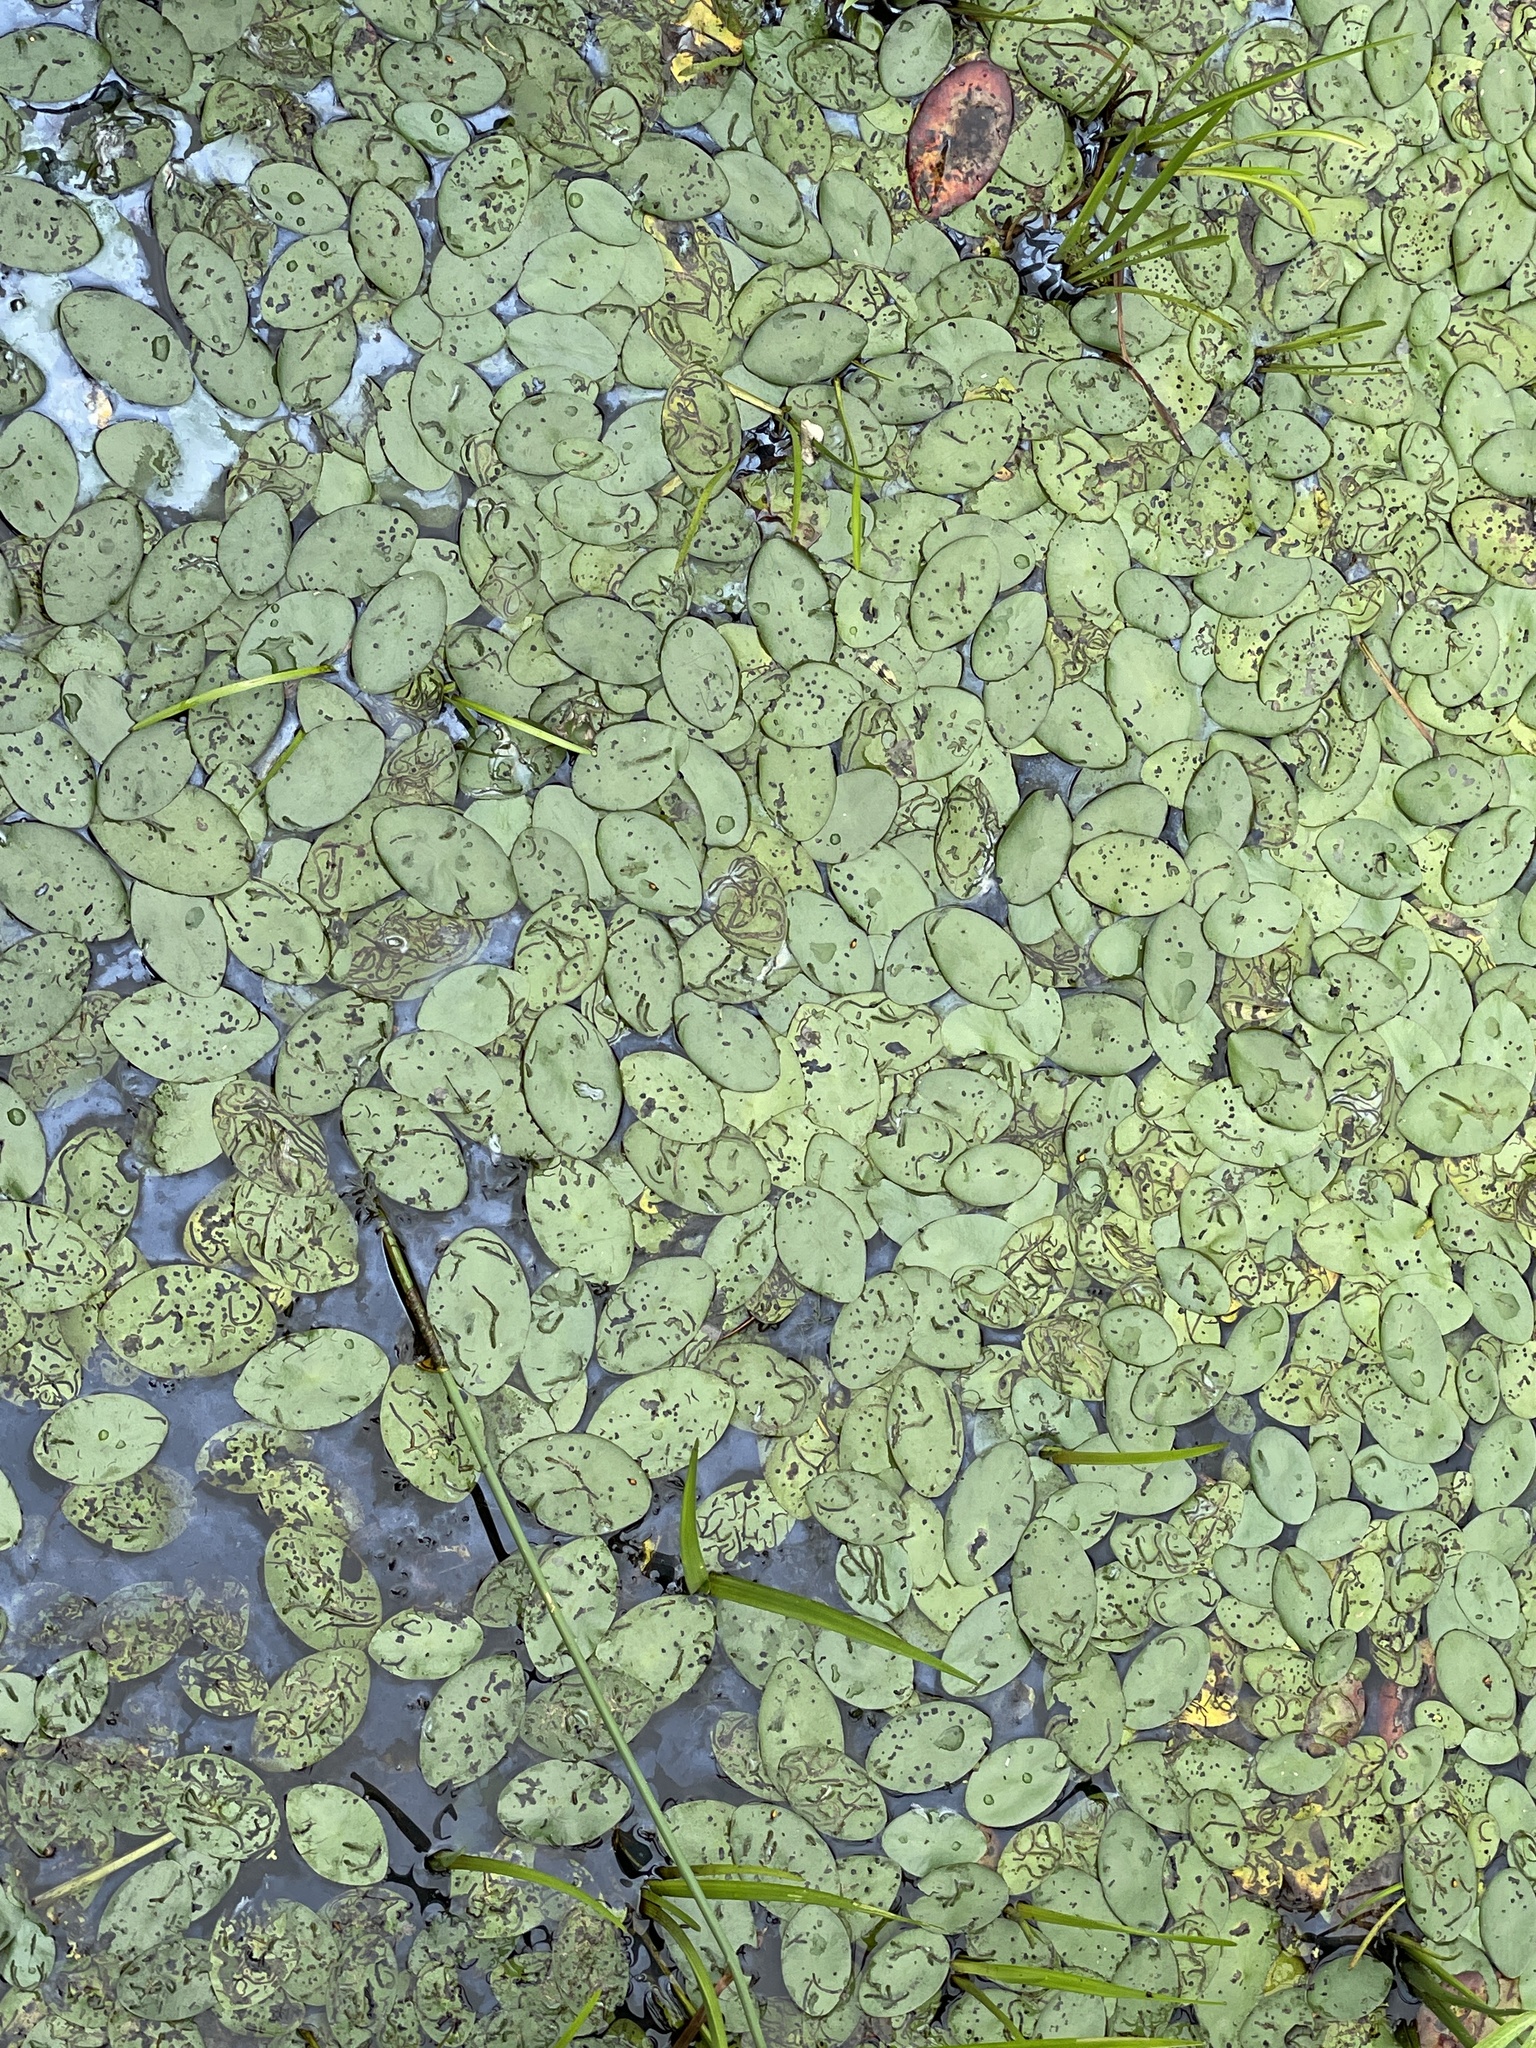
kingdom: Plantae
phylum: Tracheophyta
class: Magnoliopsida
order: Nymphaeales
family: Cabombaceae
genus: Brasenia
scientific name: Brasenia schreberi
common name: Water-shield
